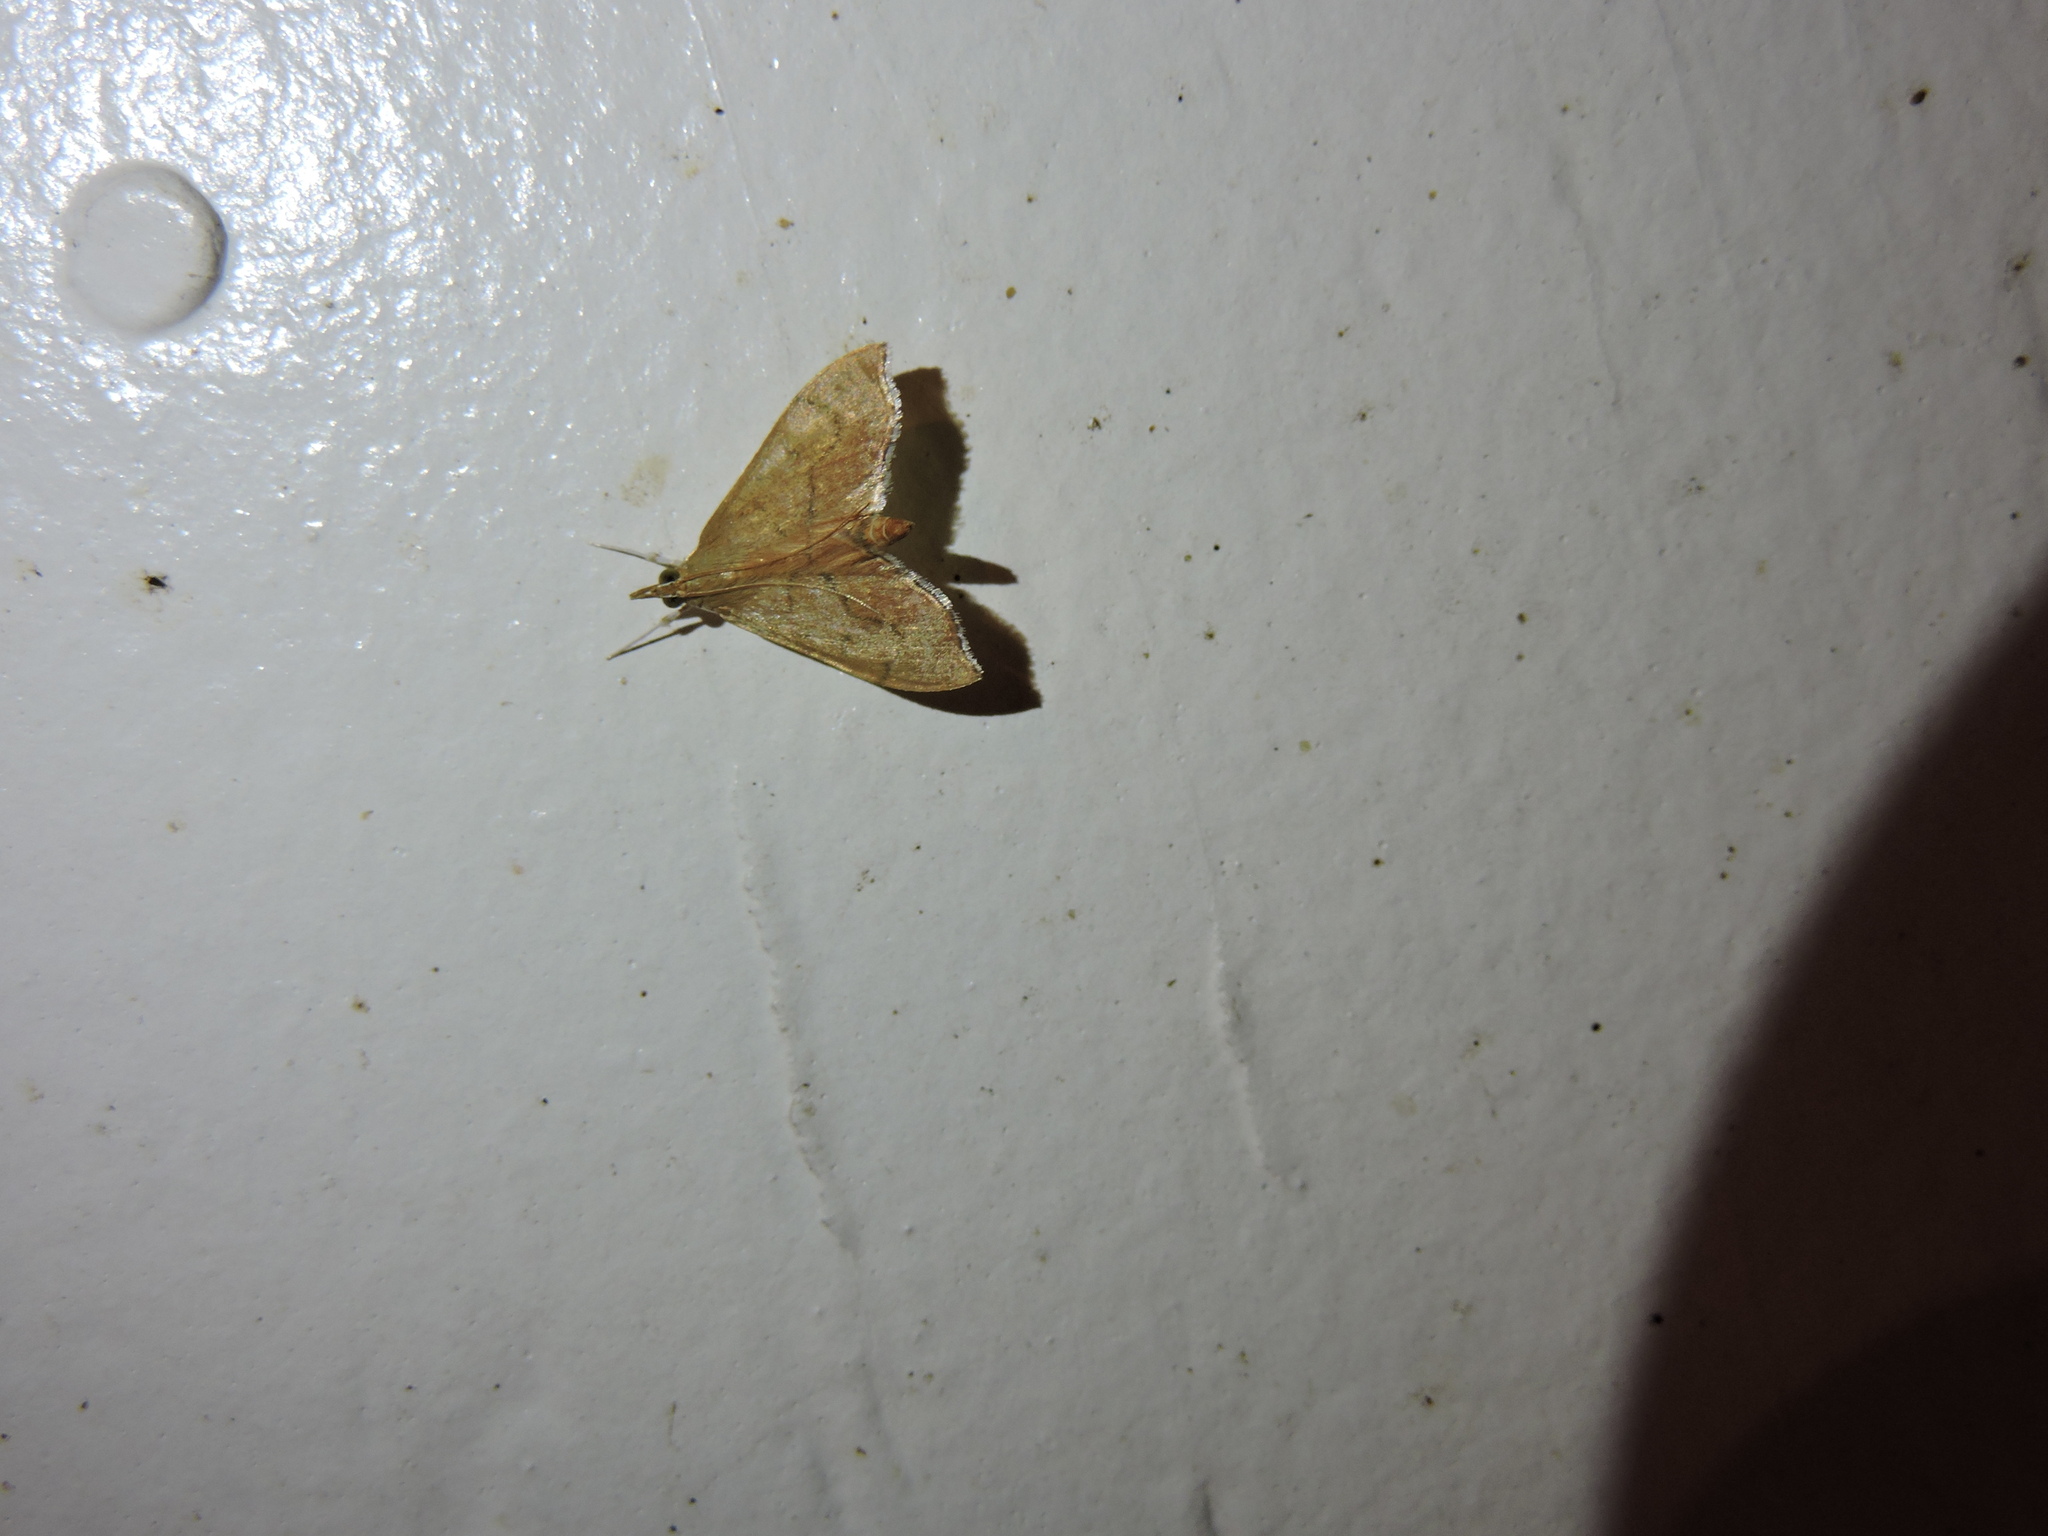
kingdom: Animalia
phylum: Arthropoda
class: Insecta
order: Lepidoptera
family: Crambidae
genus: Sericoplaga
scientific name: Sericoplaga externalis
